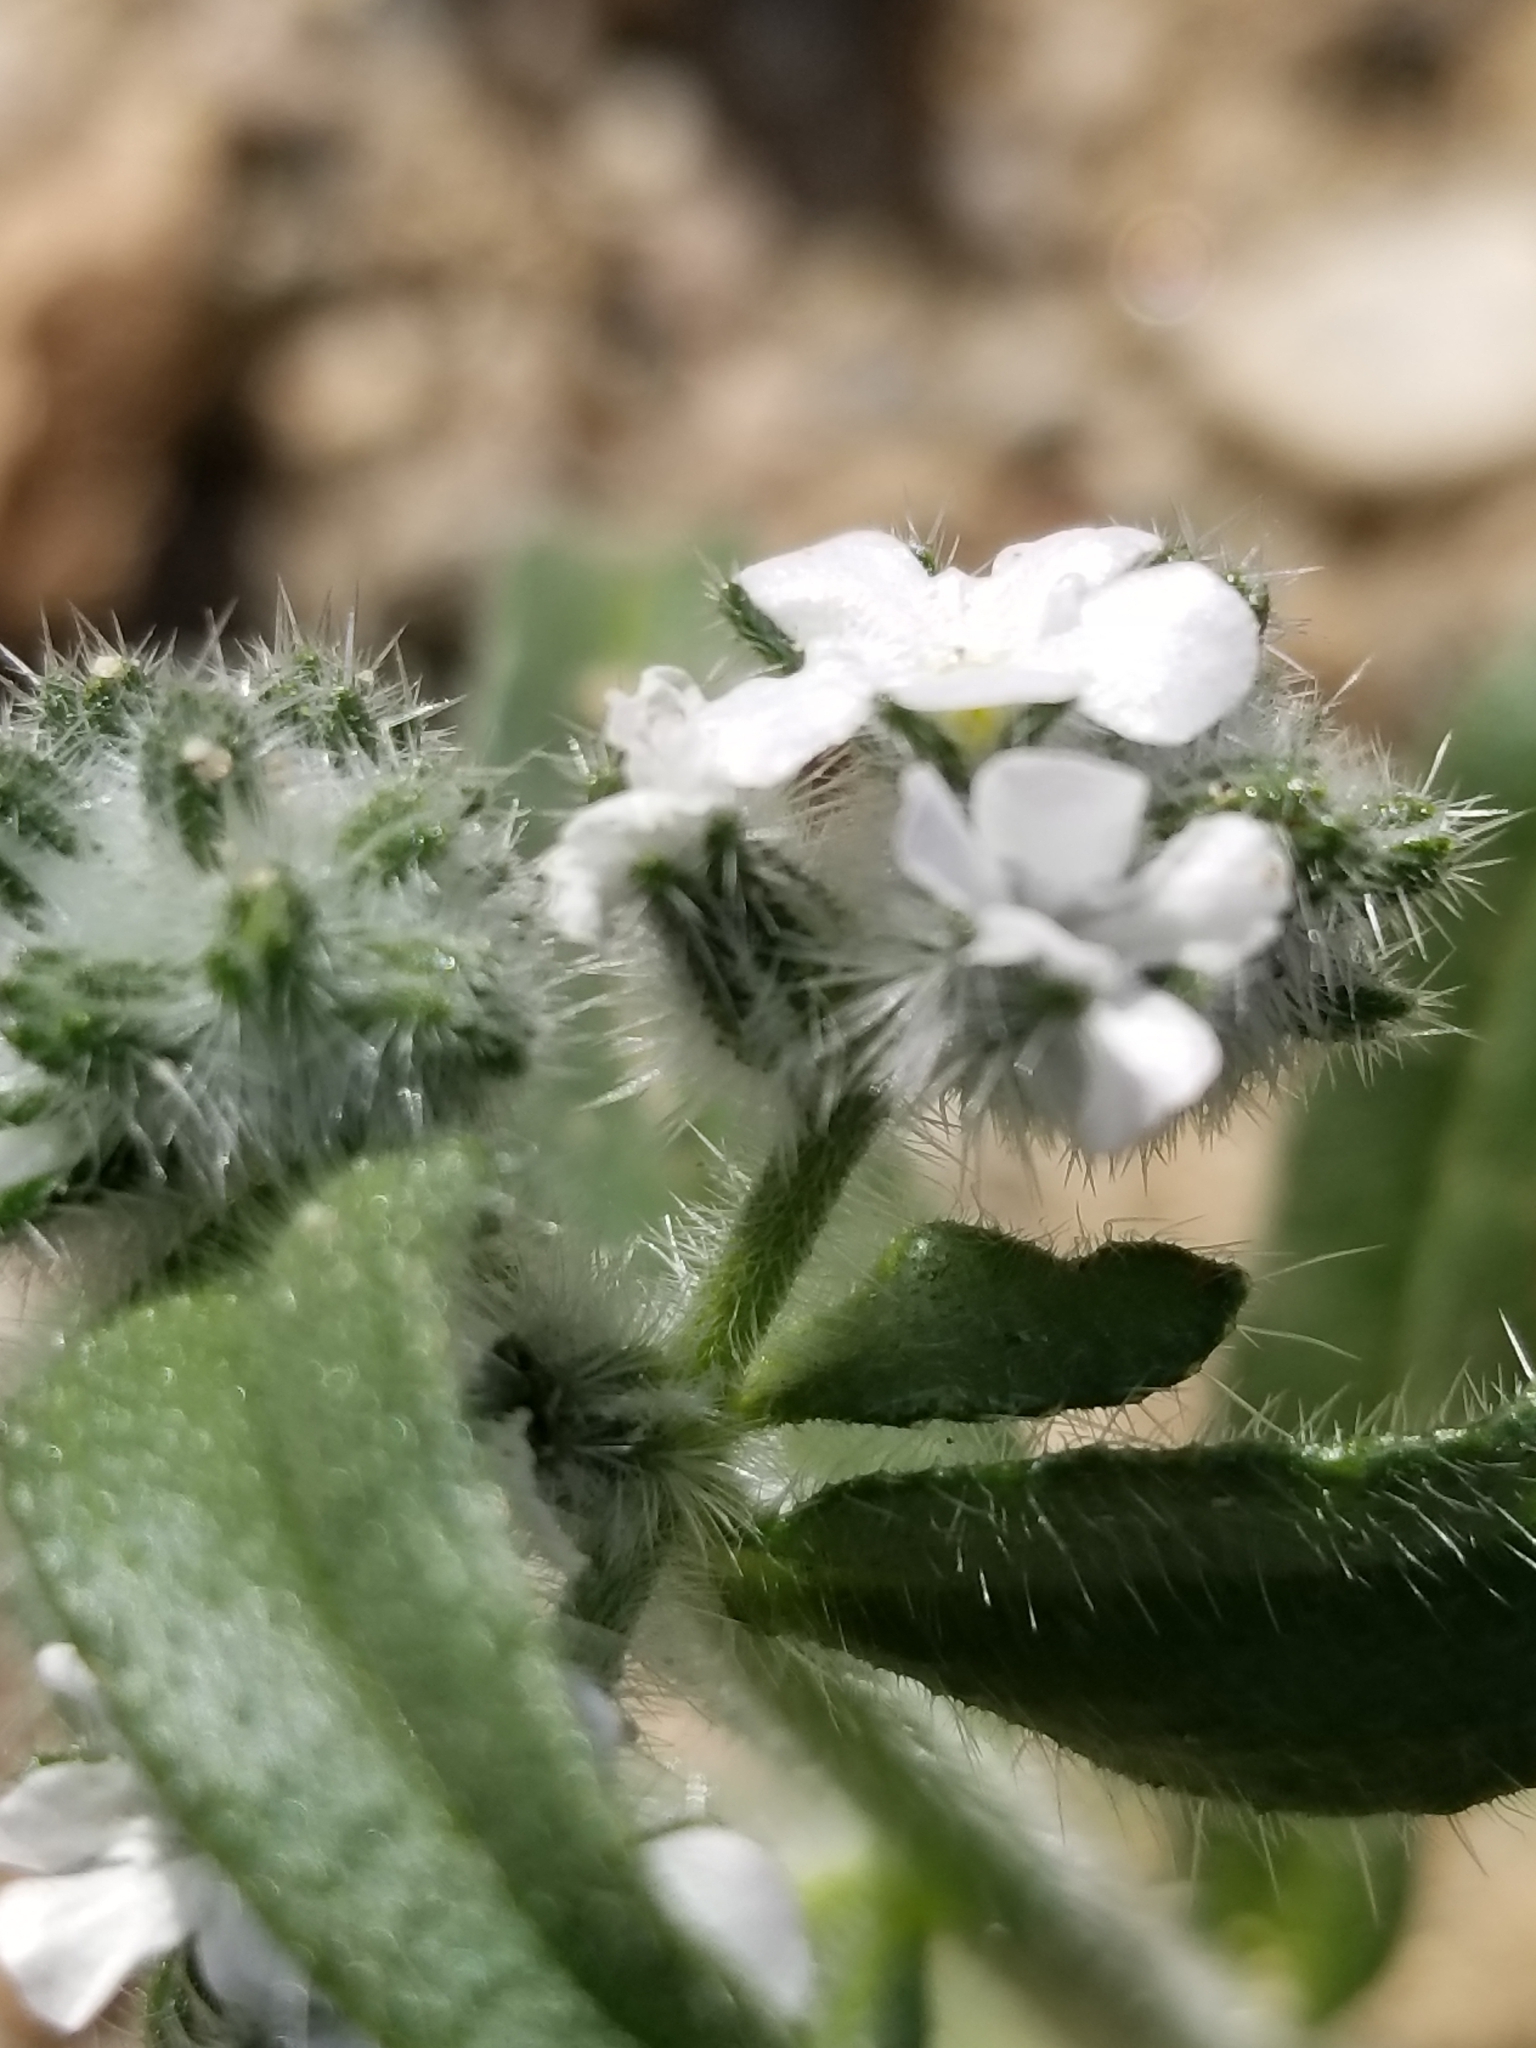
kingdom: Plantae
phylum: Tracheophyta
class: Magnoliopsida
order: Boraginales
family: Boraginaceae
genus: Cryptantha
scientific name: Cryptantha barbigera
